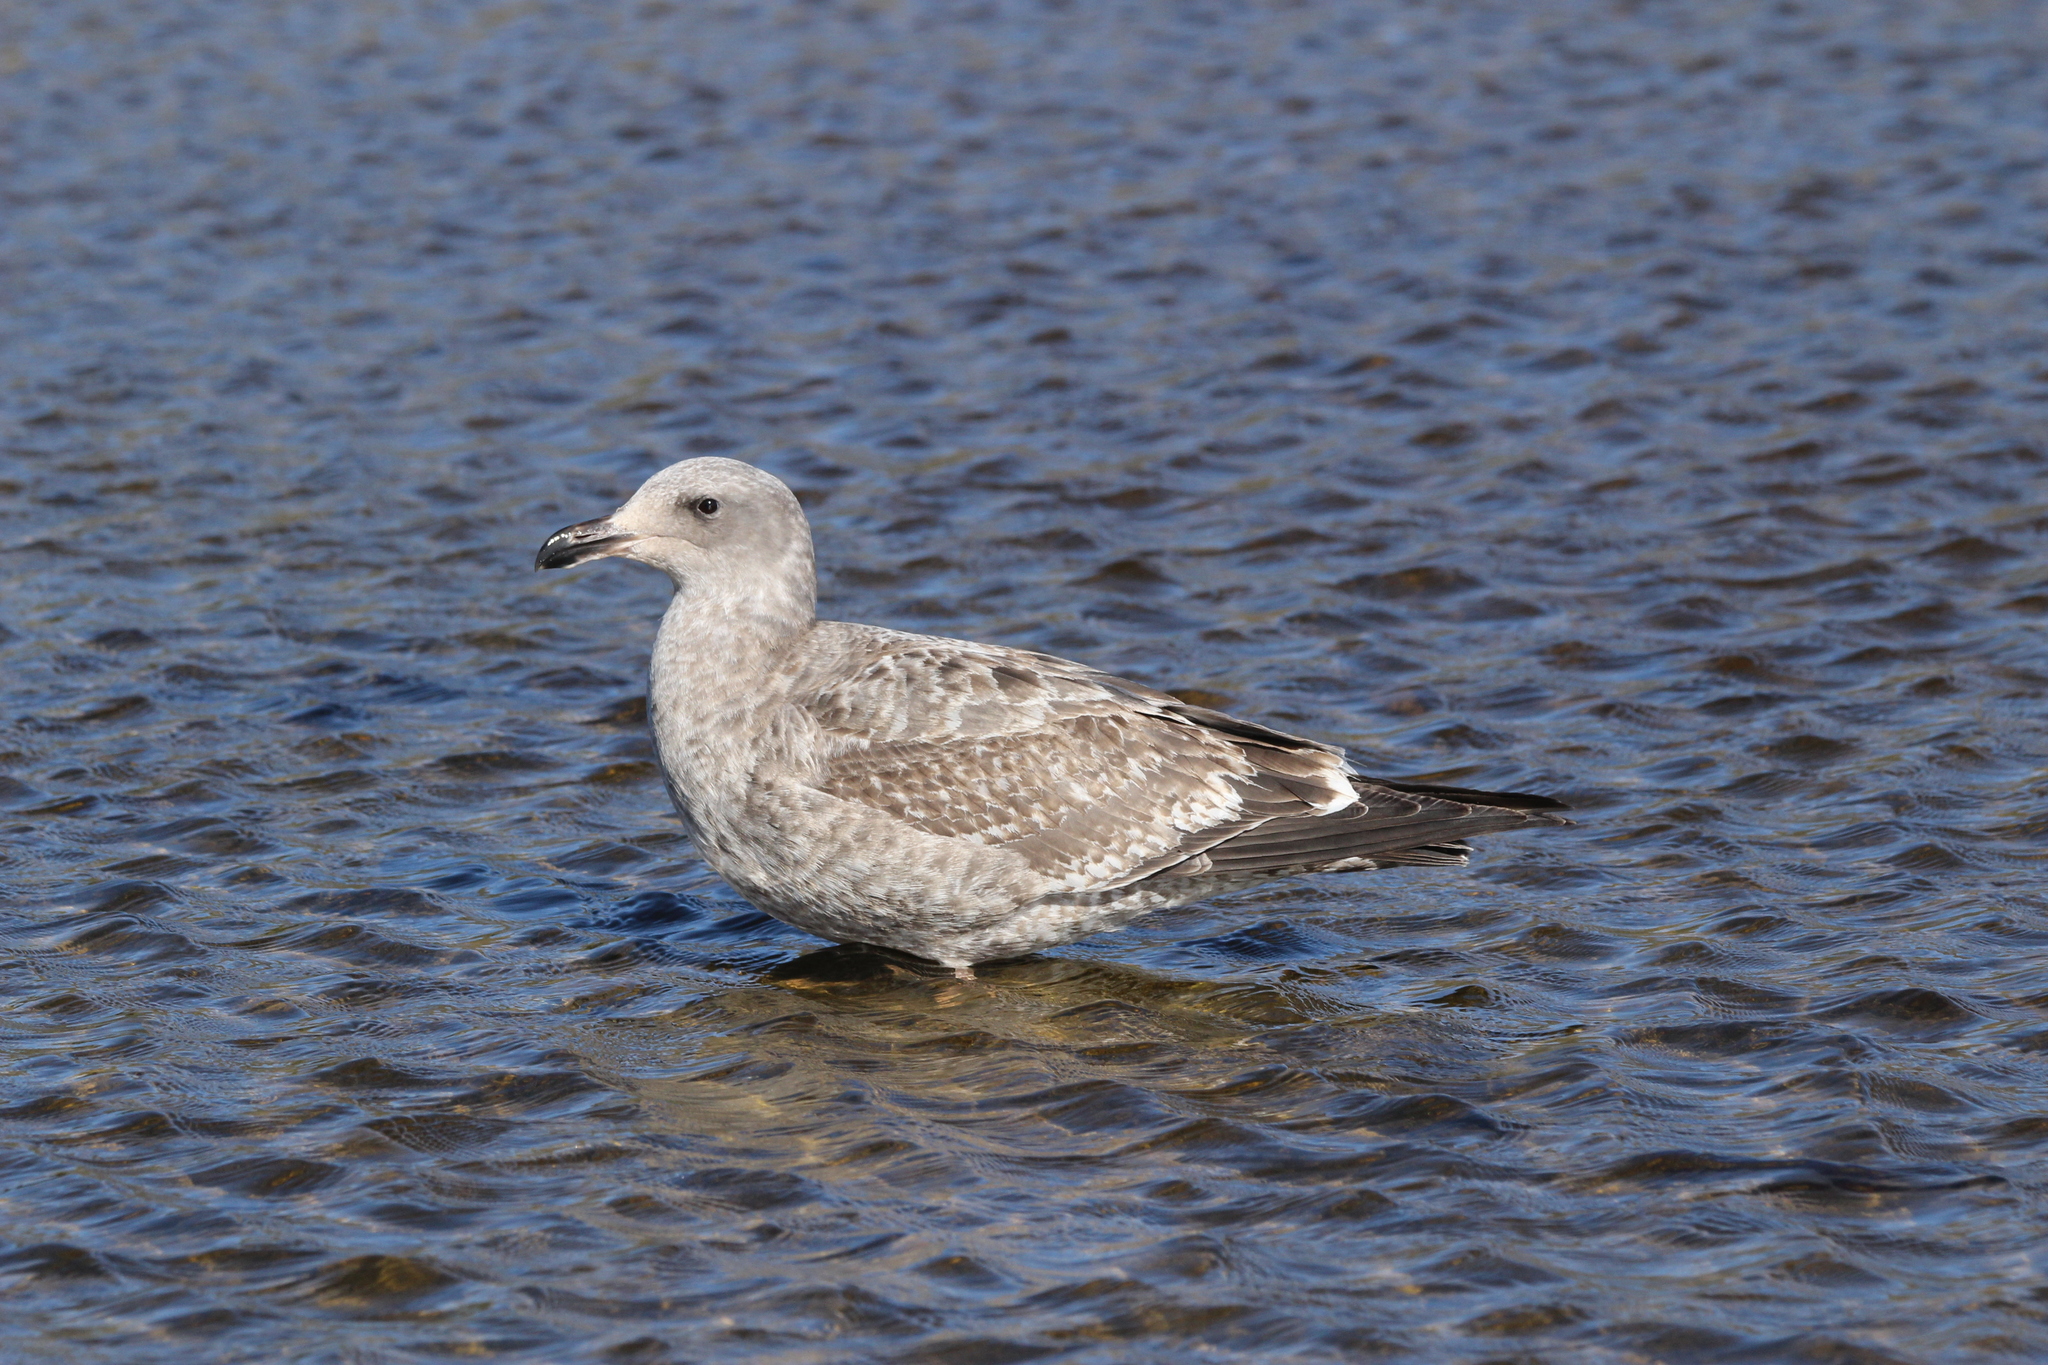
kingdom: Animalia
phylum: Chordata
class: Aves
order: Charadriiformes
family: Laridae
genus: Larus
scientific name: Larus occidentalis
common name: Western gull
